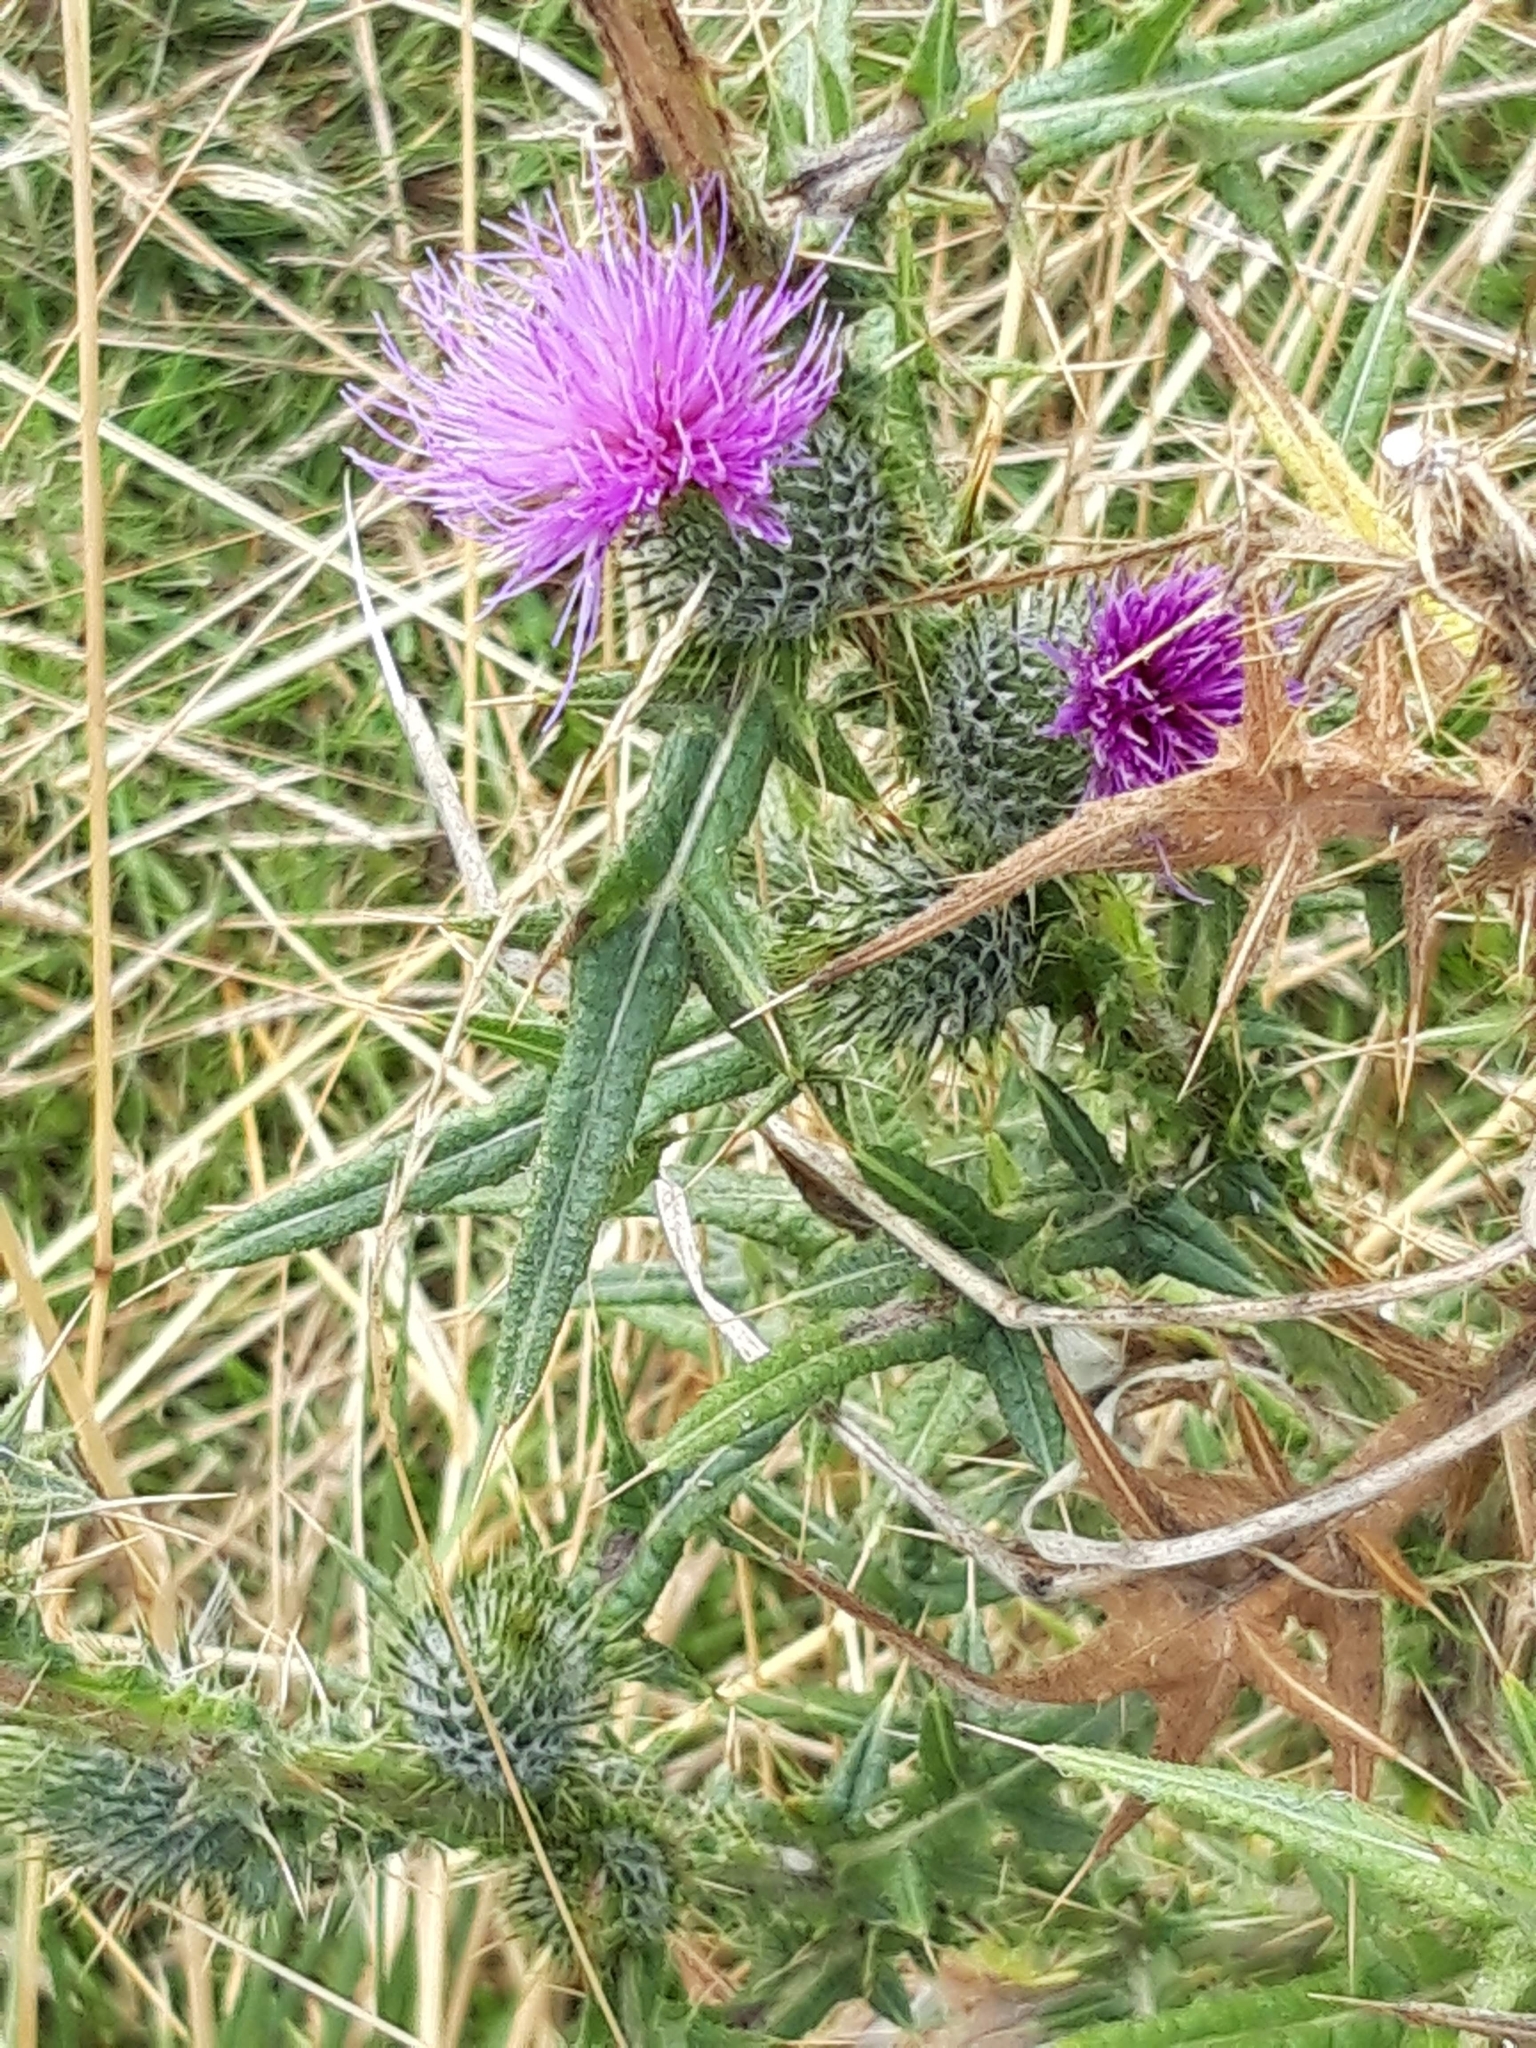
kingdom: Plantae
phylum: Tracheophyta
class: Magnoliopsida
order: Asterales
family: Asteraceae
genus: Cirsium
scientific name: Cirsium vulgare
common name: Bull thistle
